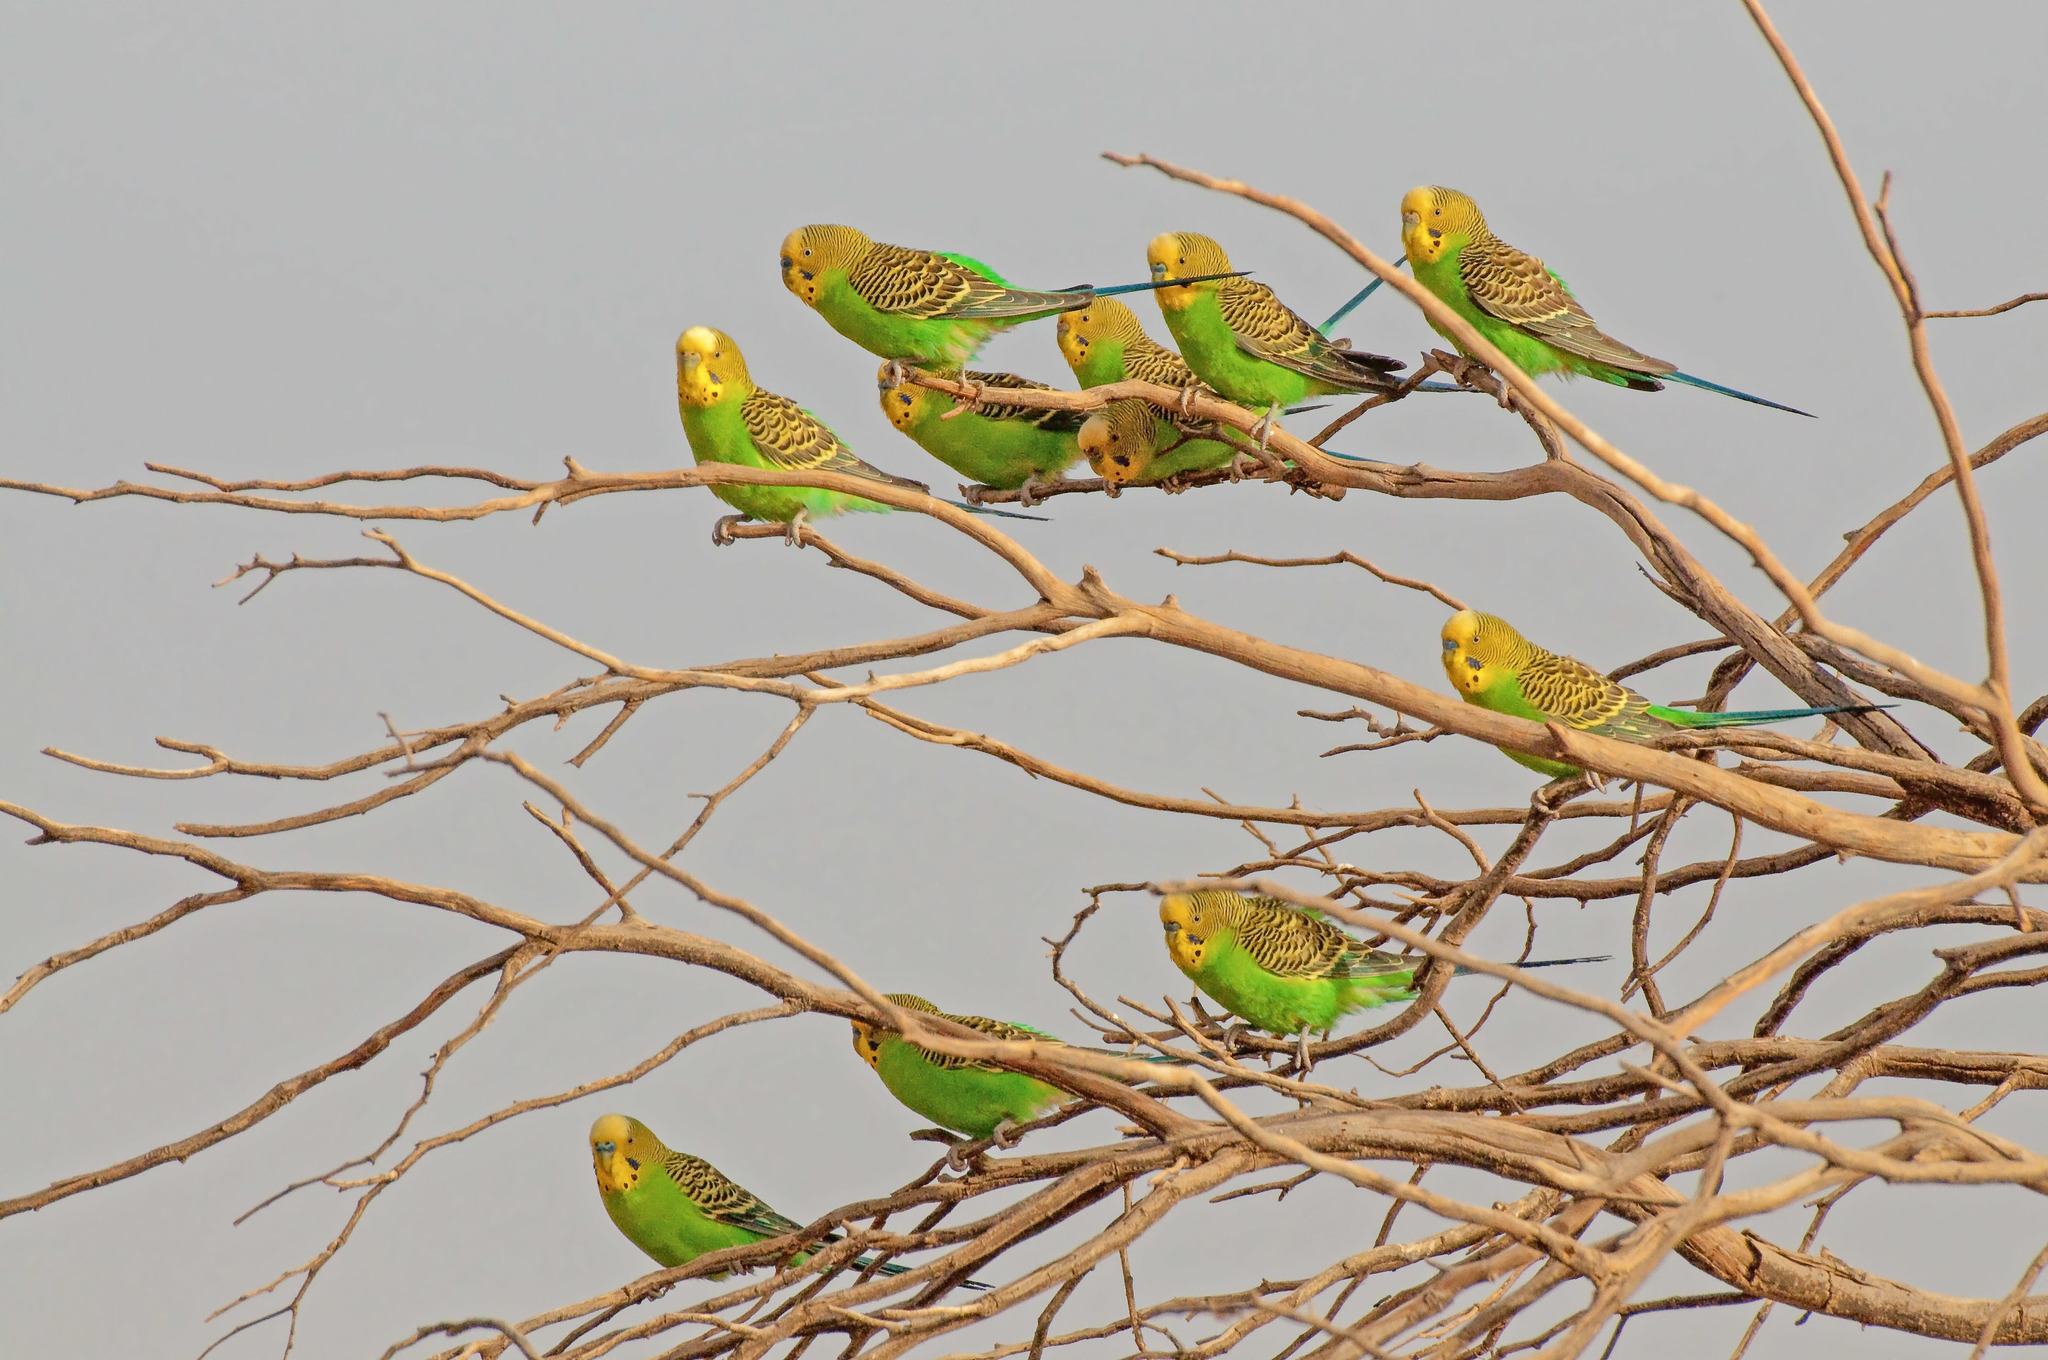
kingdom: Animalia
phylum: Chordata
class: Aves
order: Psittaciformes
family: Psittacidae
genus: Melopsittacus
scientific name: Melopsittacus undulatus
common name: Budgerigar
